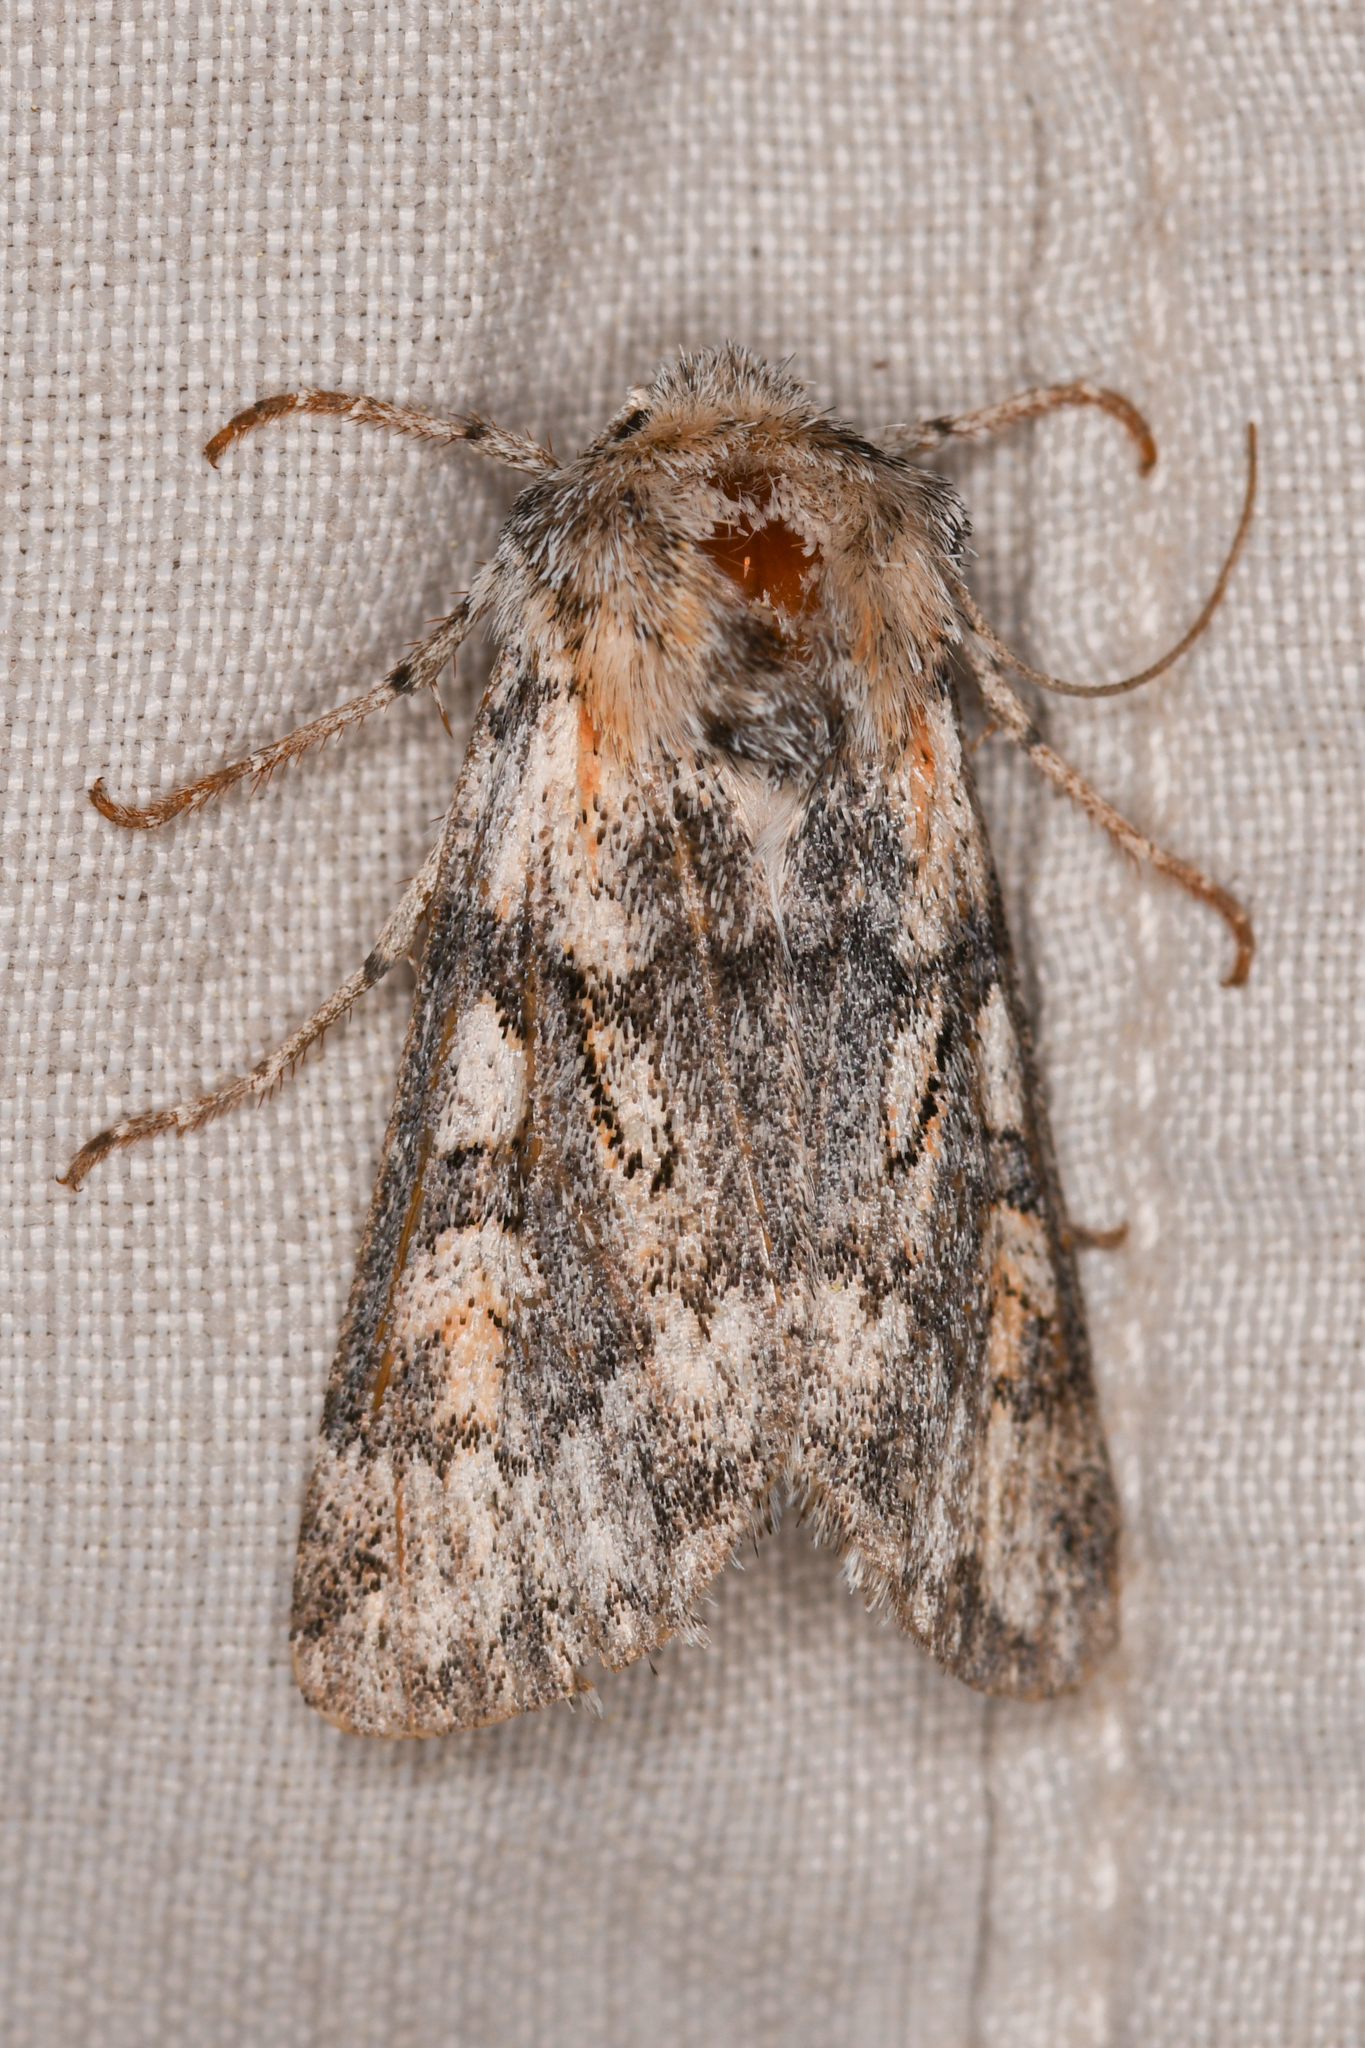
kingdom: Animalia
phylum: Arthropoda
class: Insecta
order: Lepidoptera
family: Noctuidae
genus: Protogygia
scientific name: Protogygia milleri
